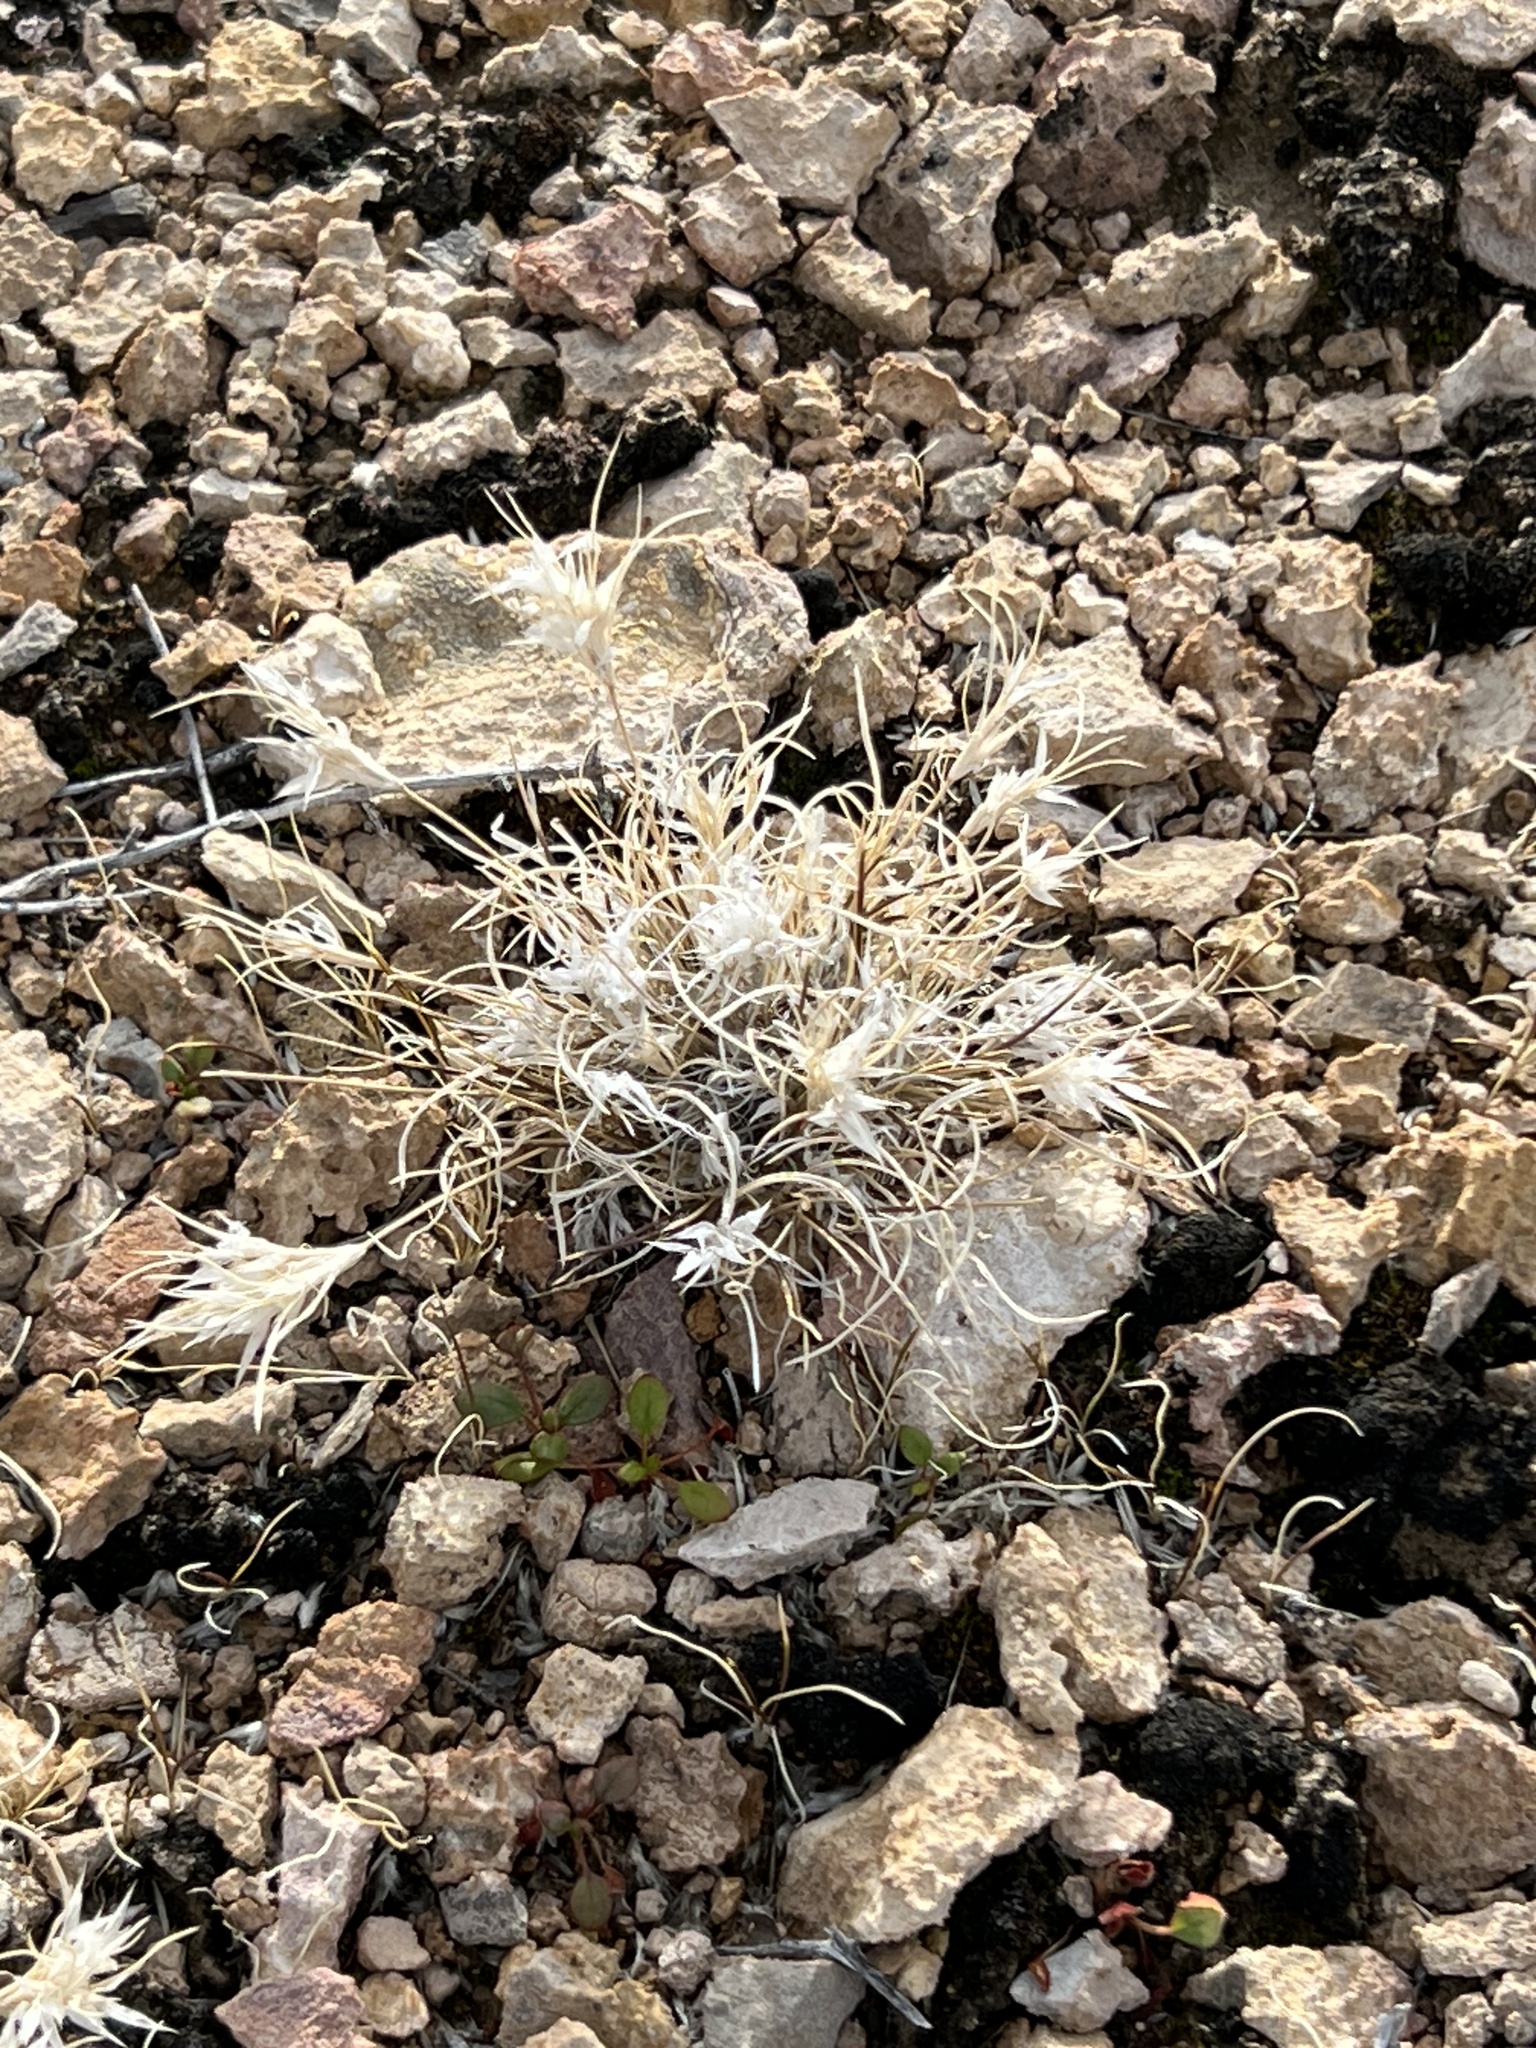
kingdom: Plantae
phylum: Tracheophyta
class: Liliopsida
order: Poales
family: Poaceae
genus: Dasyochloa
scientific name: Dasyochloa pulchella
